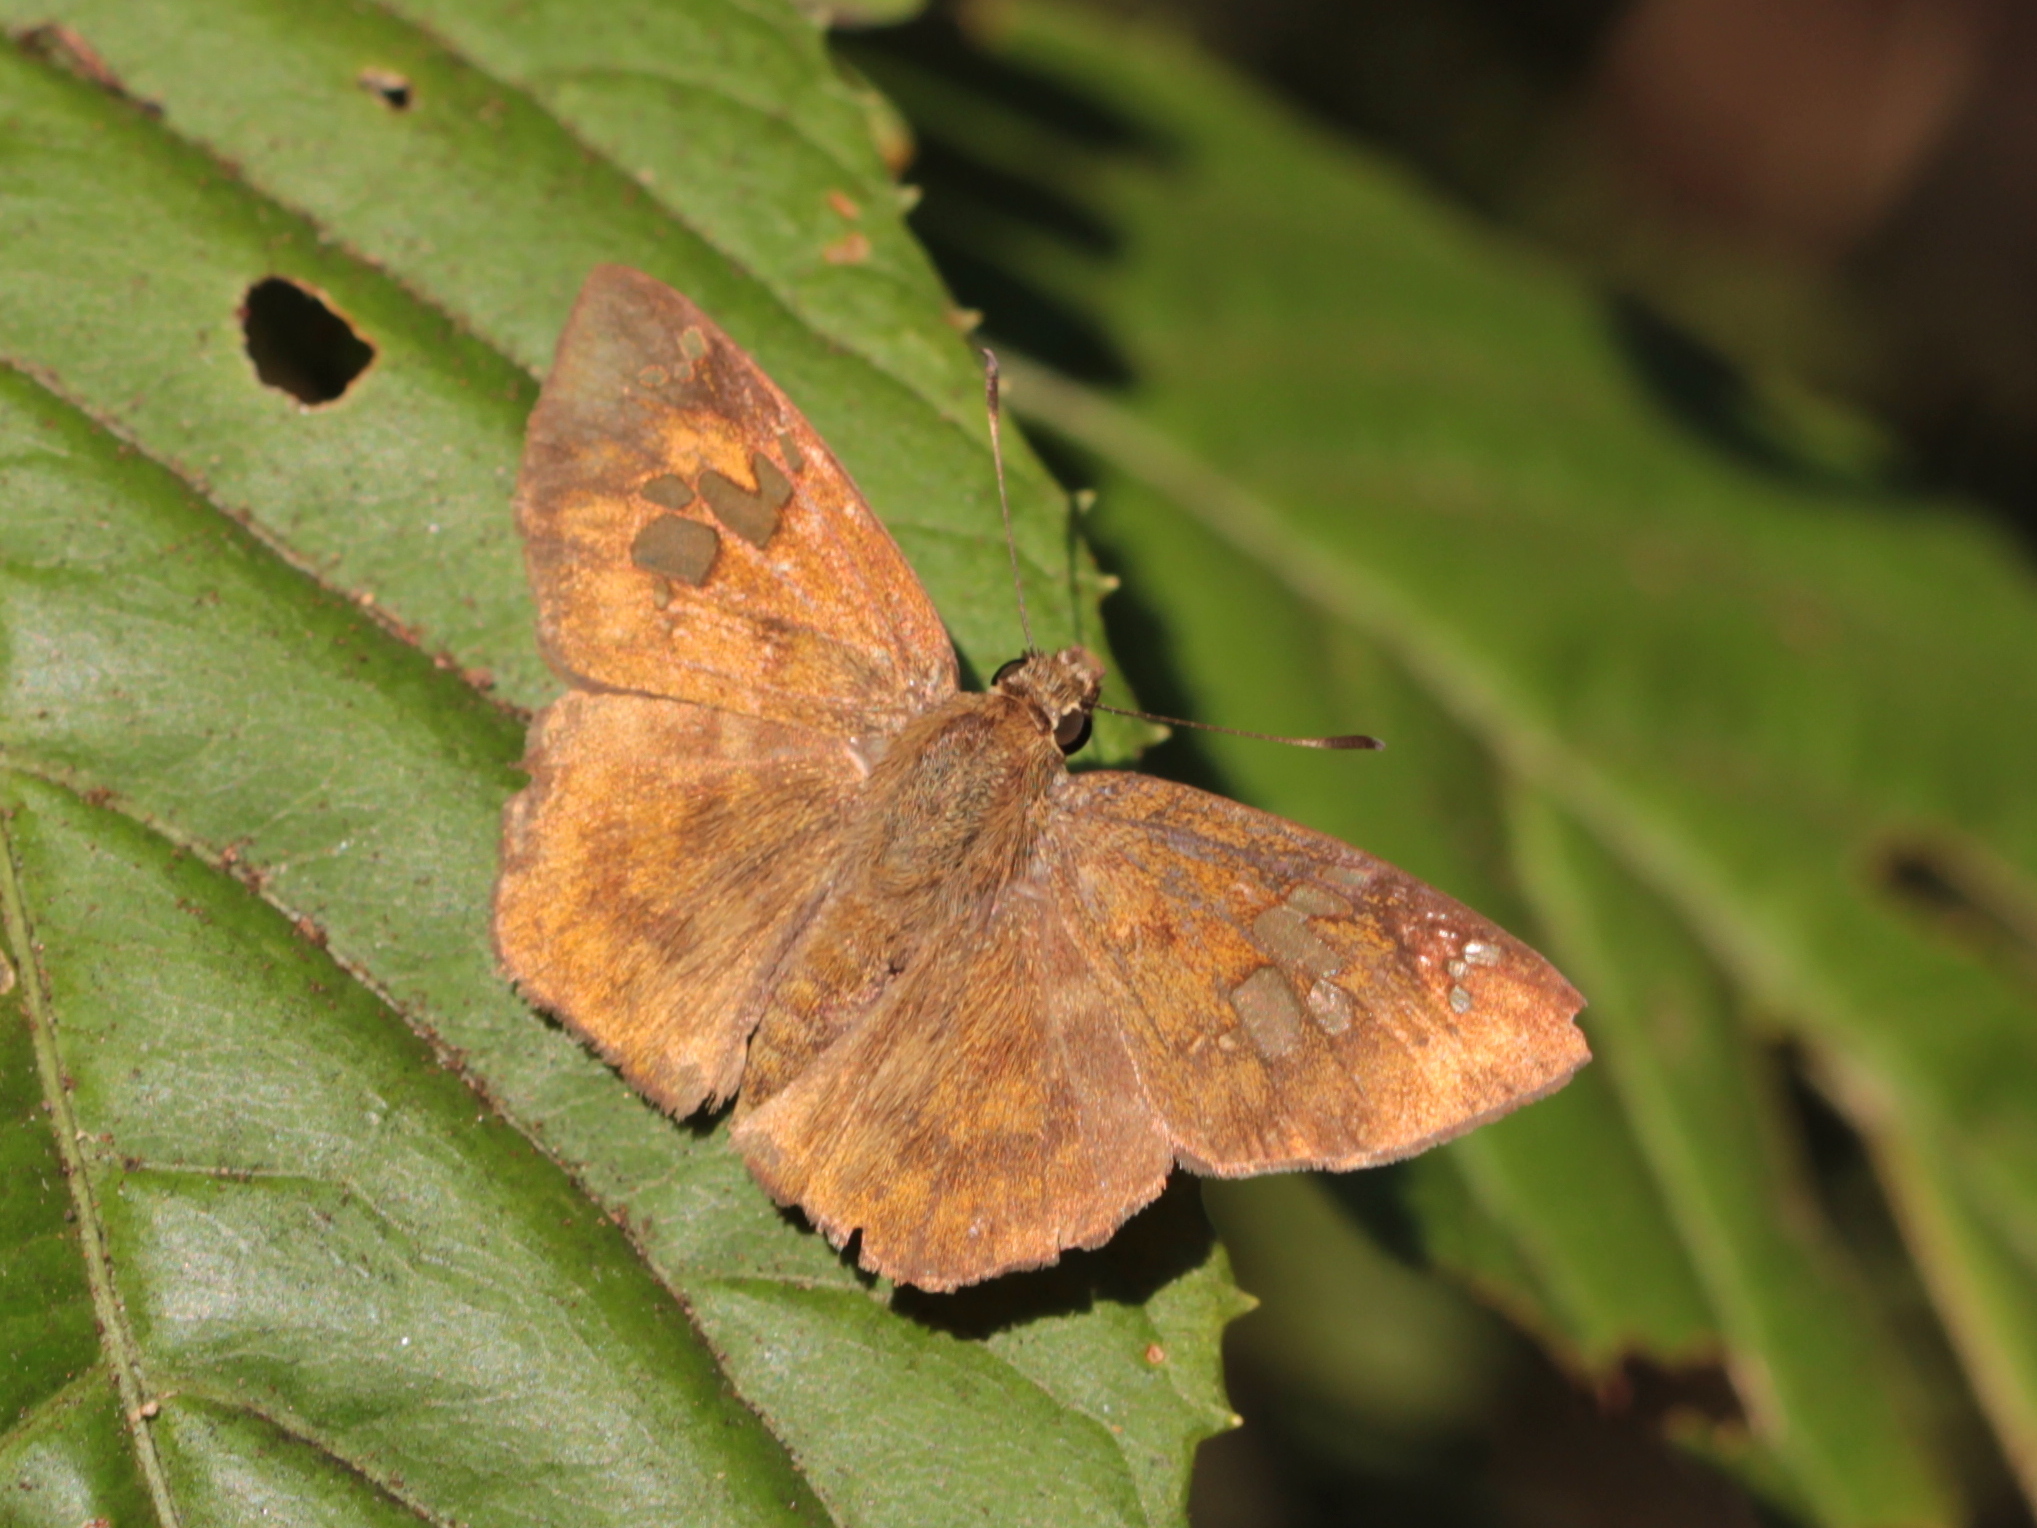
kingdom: Animalia
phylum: Arthropoda
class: Insecta
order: Lepidoptera
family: Hesperiidae
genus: Pseudocoladenia
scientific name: Pseudocoladenia dan
